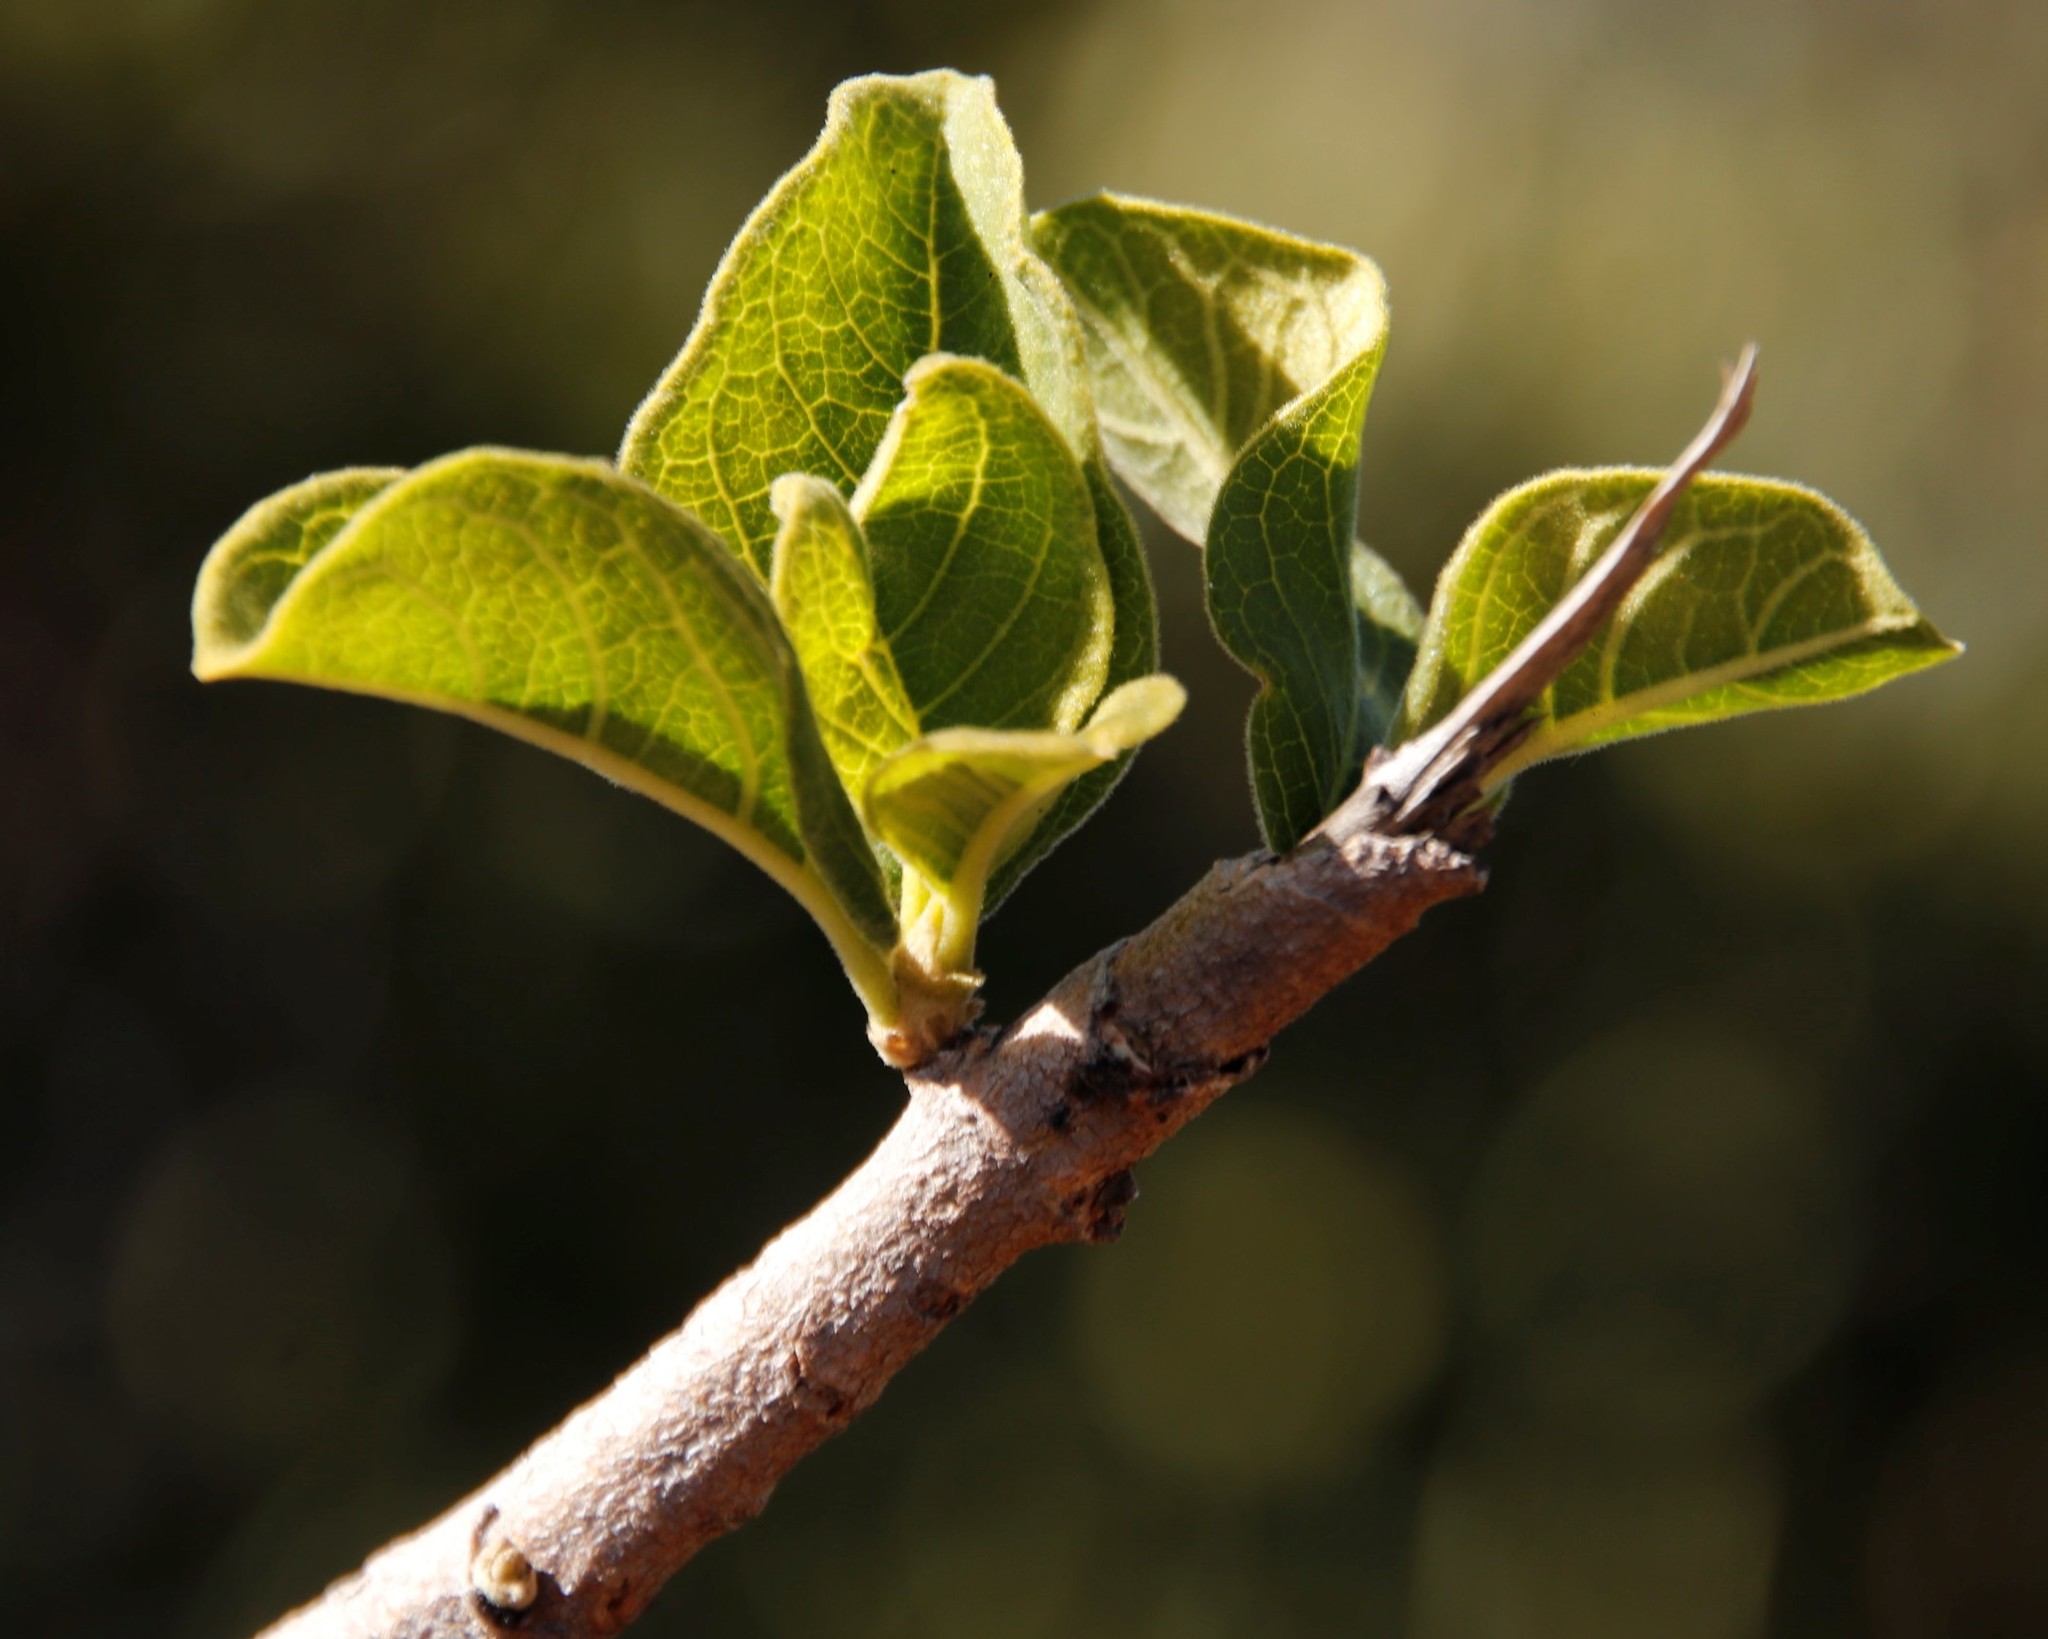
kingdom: Plantae
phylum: Tracheophyta
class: Magnoliopsida
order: Gentianales
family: Rubiaceae
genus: Vangueria
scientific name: Vangueria infausta
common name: Medlar
